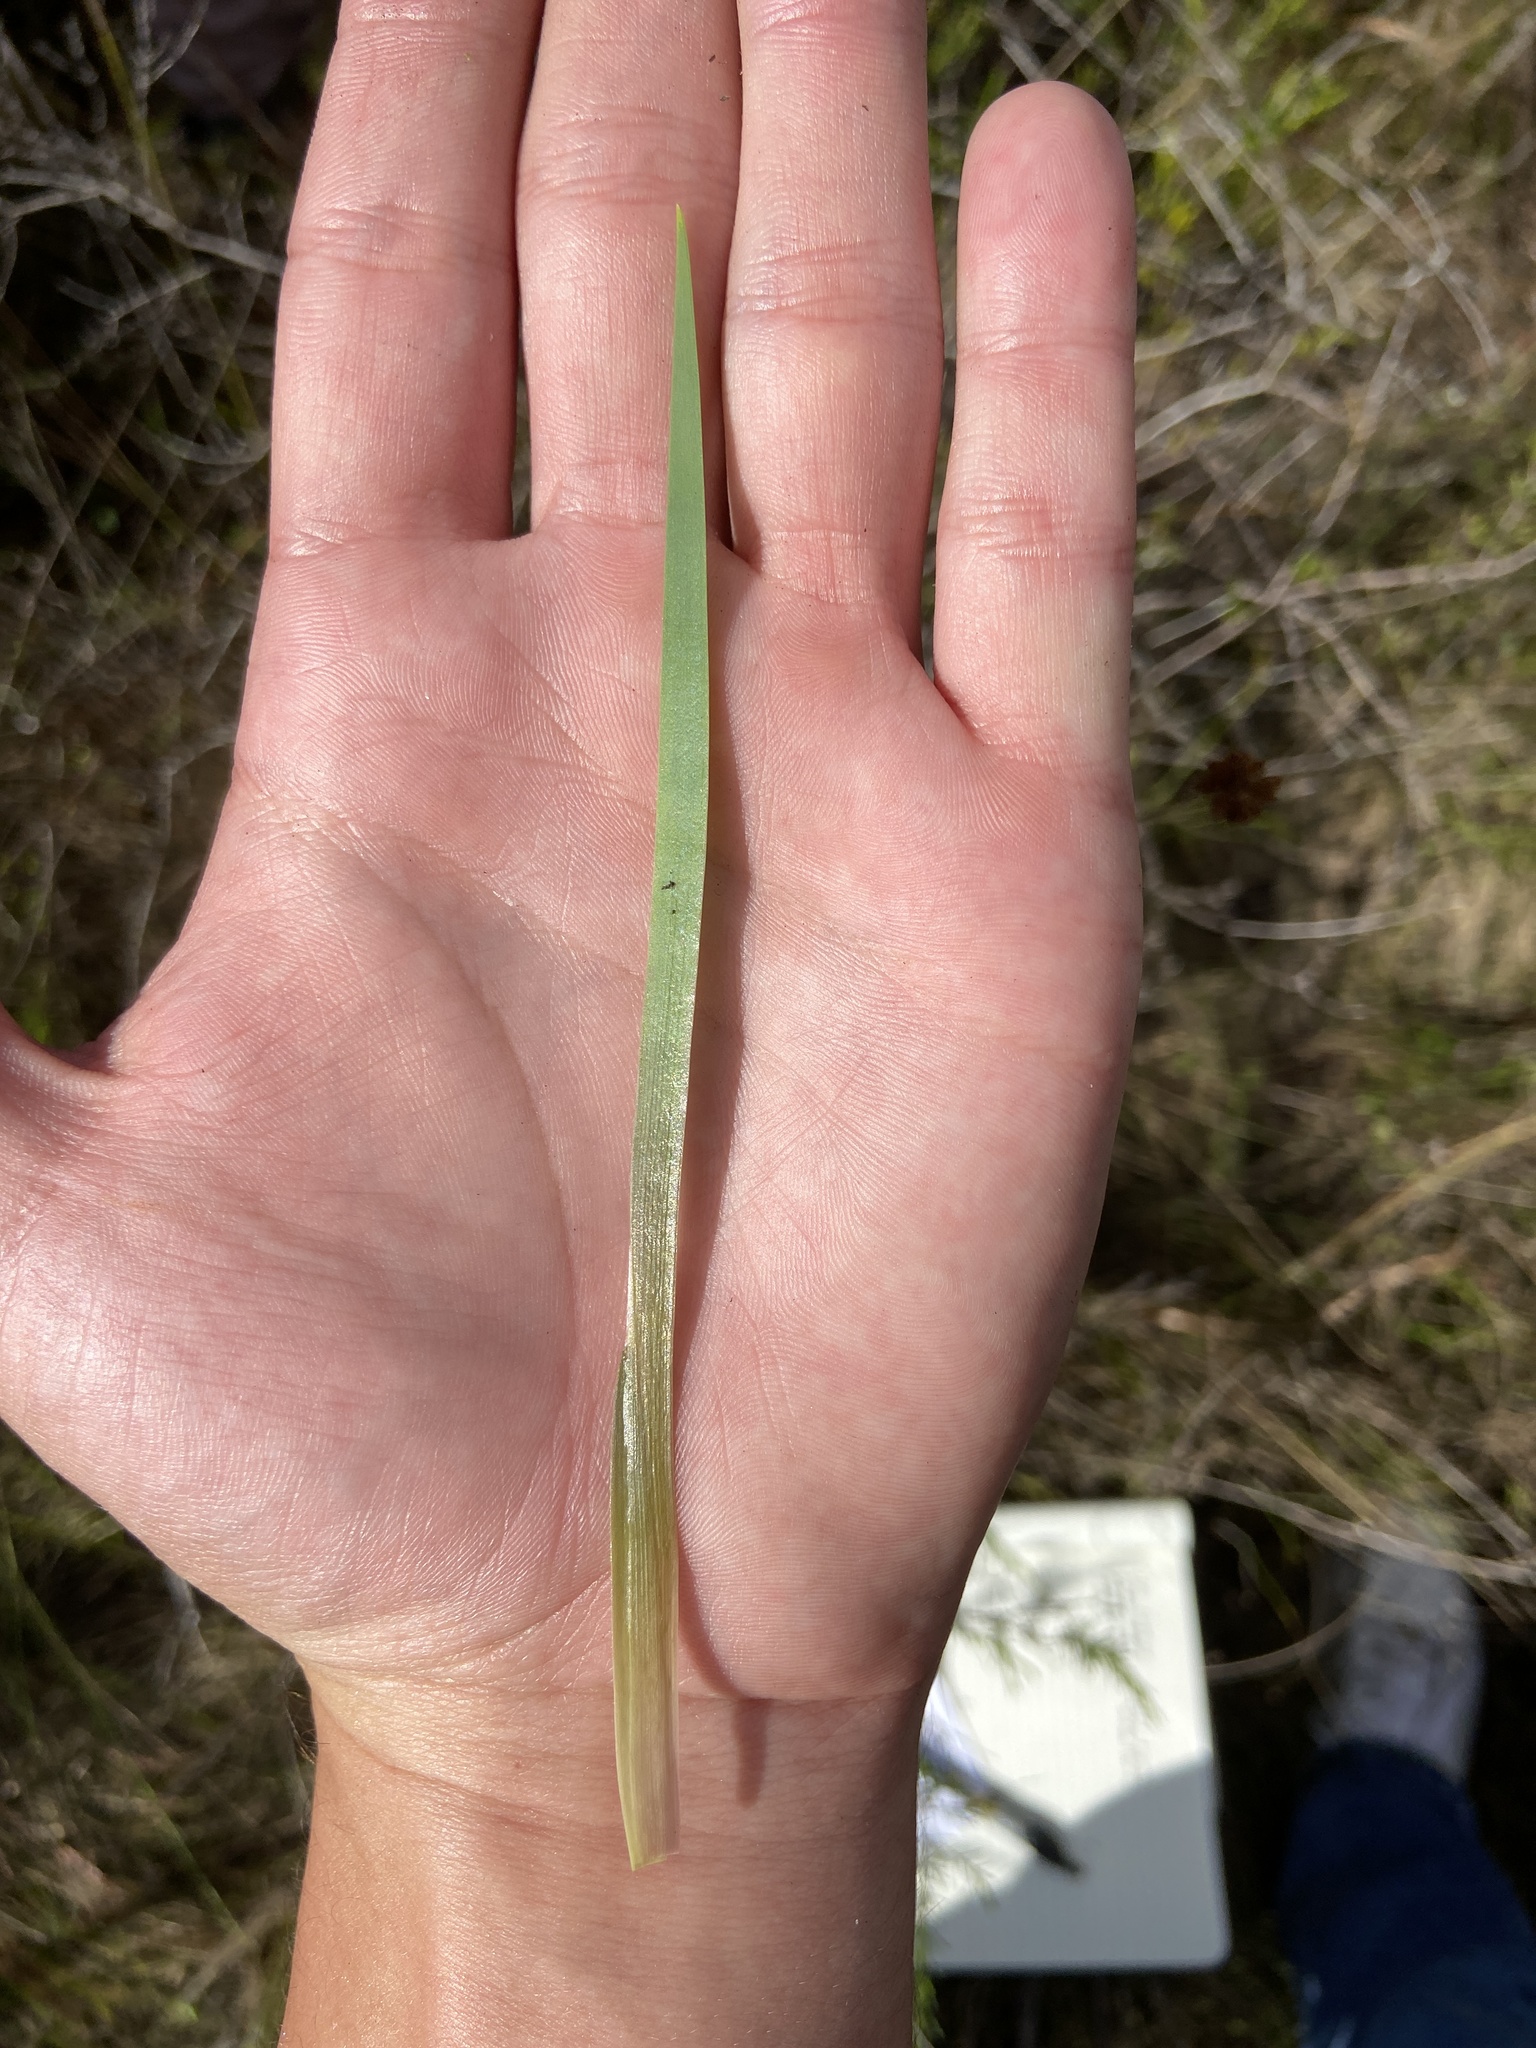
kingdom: Plantae
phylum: Tracheophyta
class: Liliopsida
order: Poales
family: Xyridaceae
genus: Xyris
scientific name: Xyris smalliana
